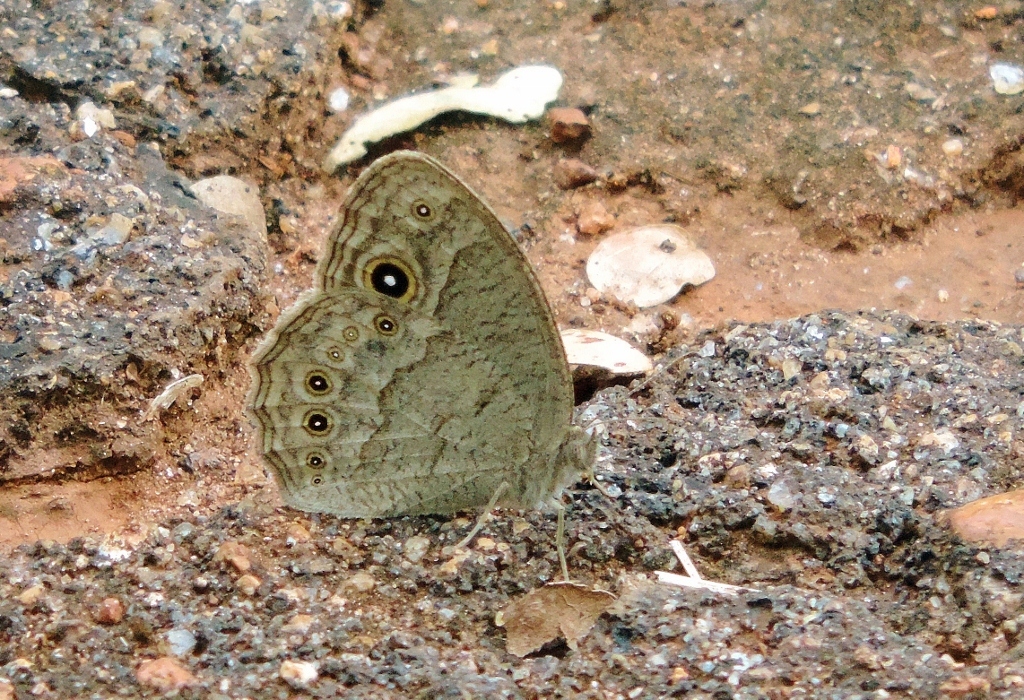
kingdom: Animalia
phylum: Arthropoda
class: Insecta
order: Lepidoptera
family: Nymphalidae
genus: Mycalesis
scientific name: Mycalesis ena
